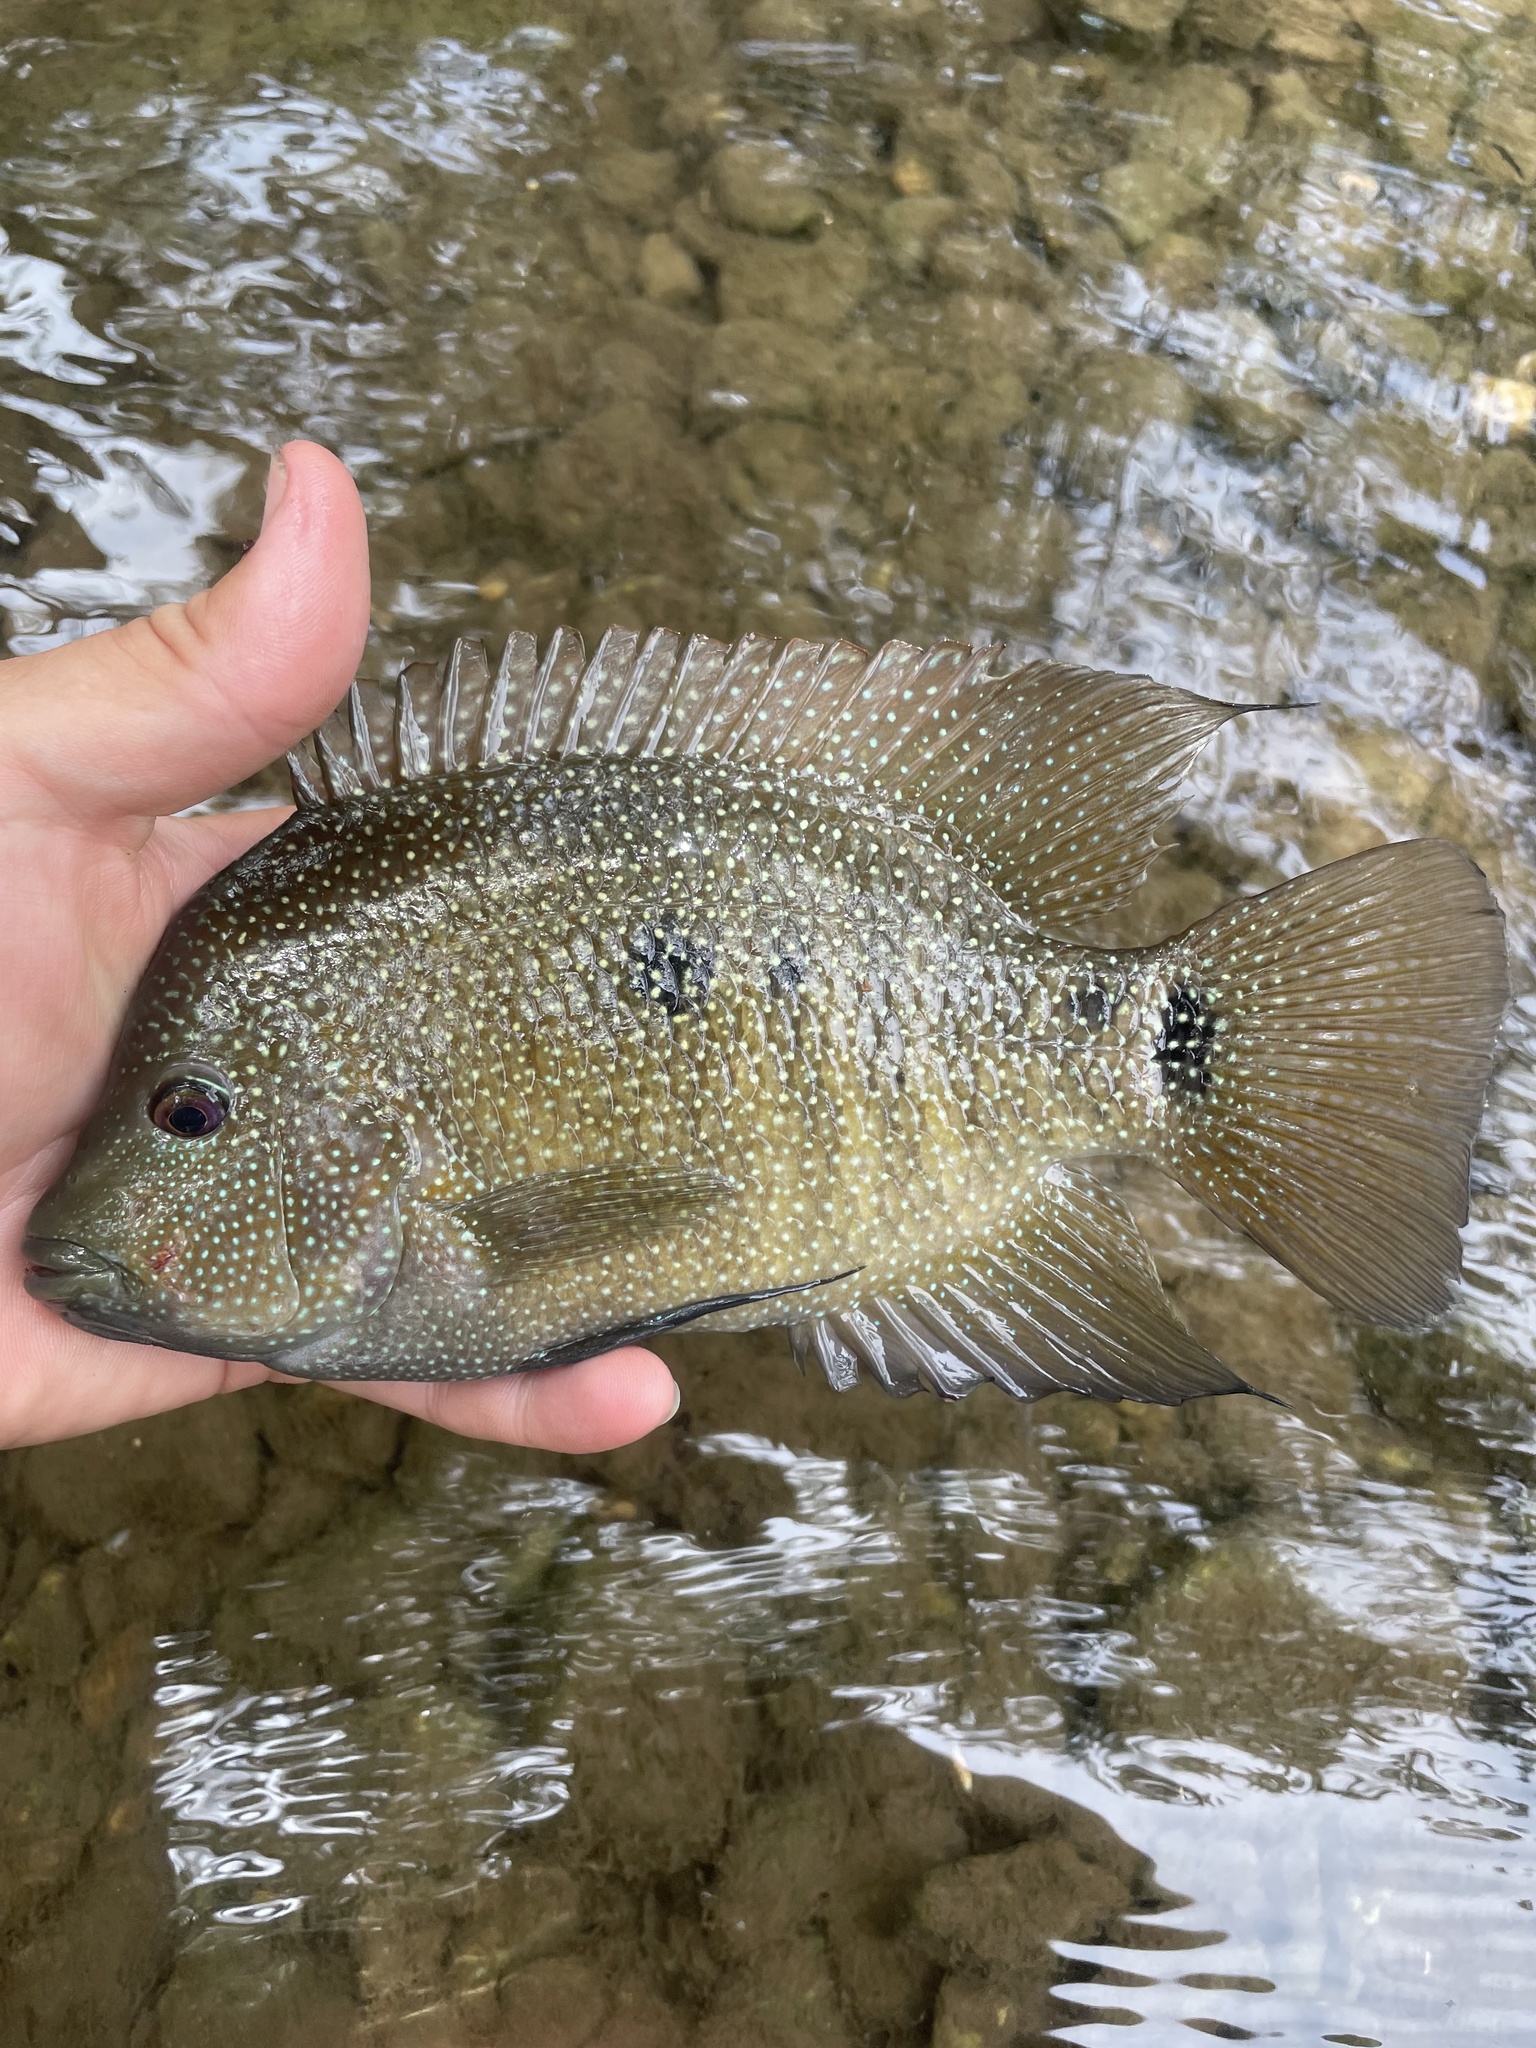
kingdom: Animalia
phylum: Chordata
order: Perciformes
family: Cichlidae
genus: Herichthys
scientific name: Herichthys cyanoguttatus
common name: Rio grande cichlid
